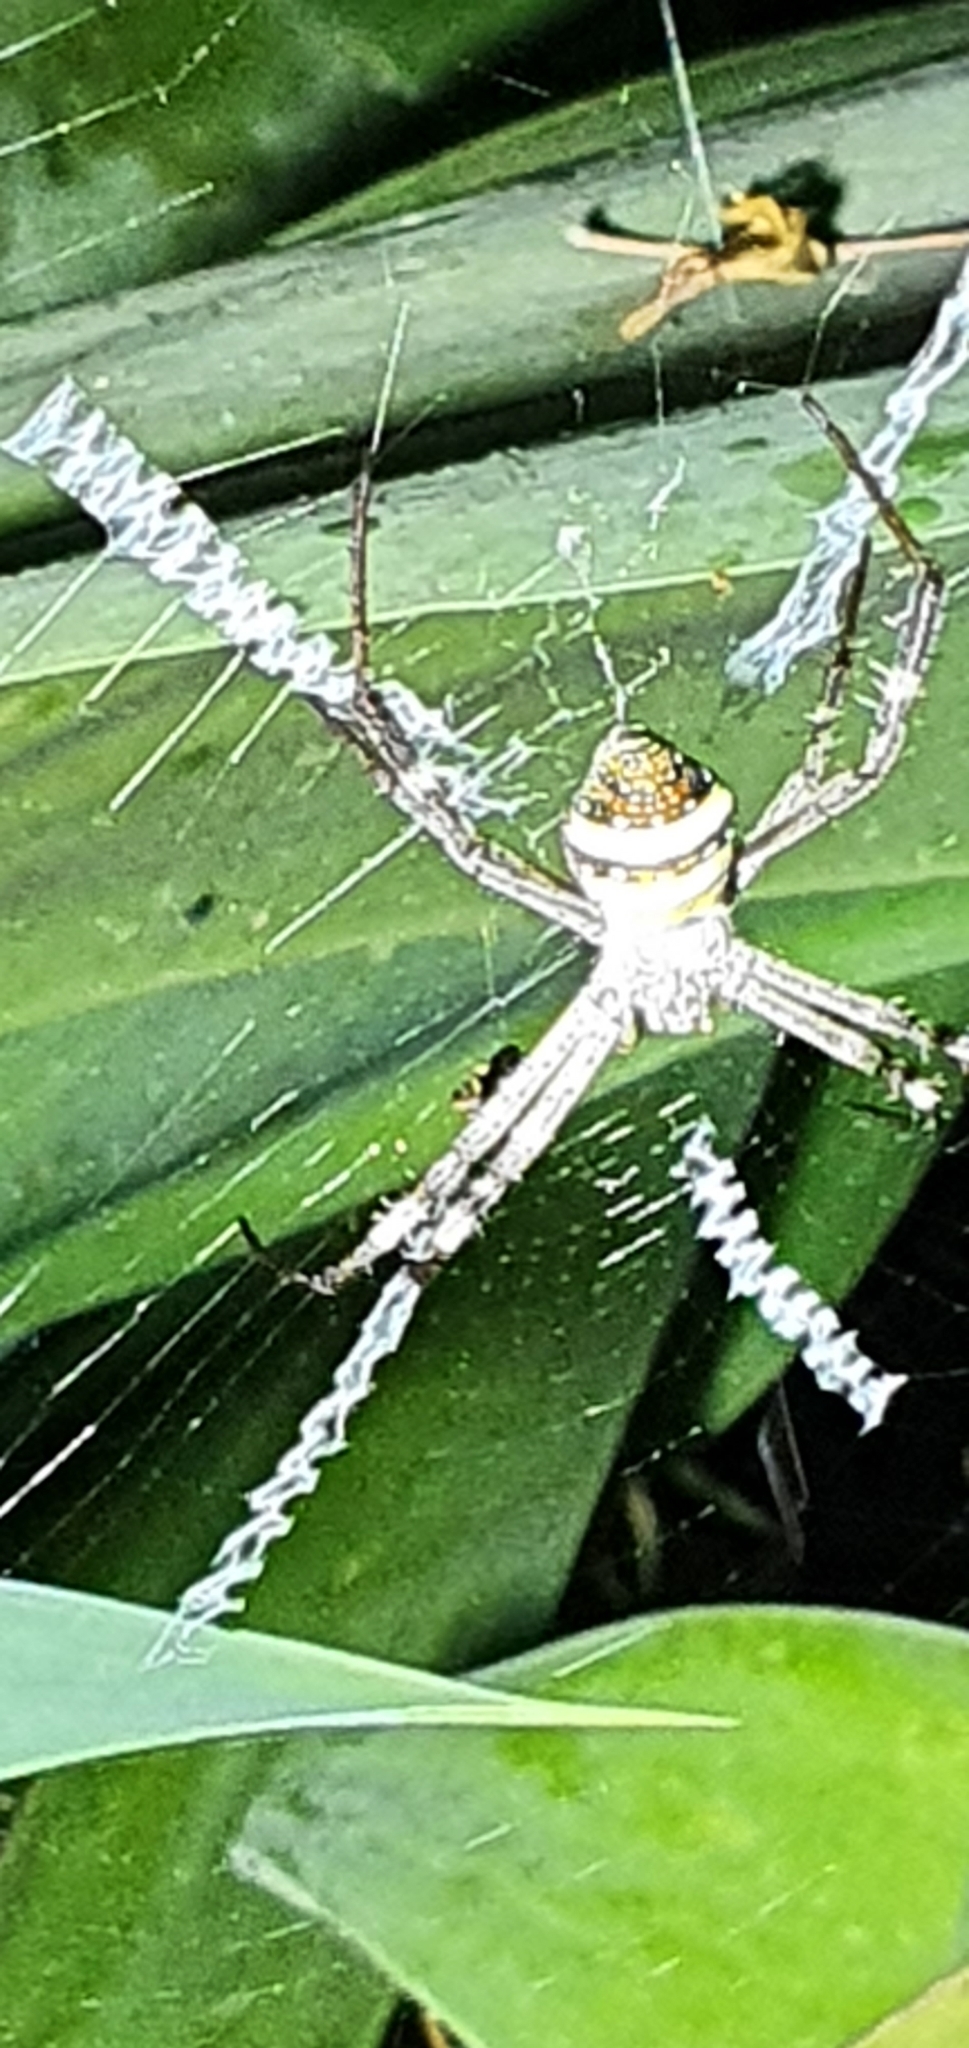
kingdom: Animalia
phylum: Arthropoda
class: Arachnida
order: Araneae
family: Araneidae
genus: Argiope
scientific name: Argiope aetherea
